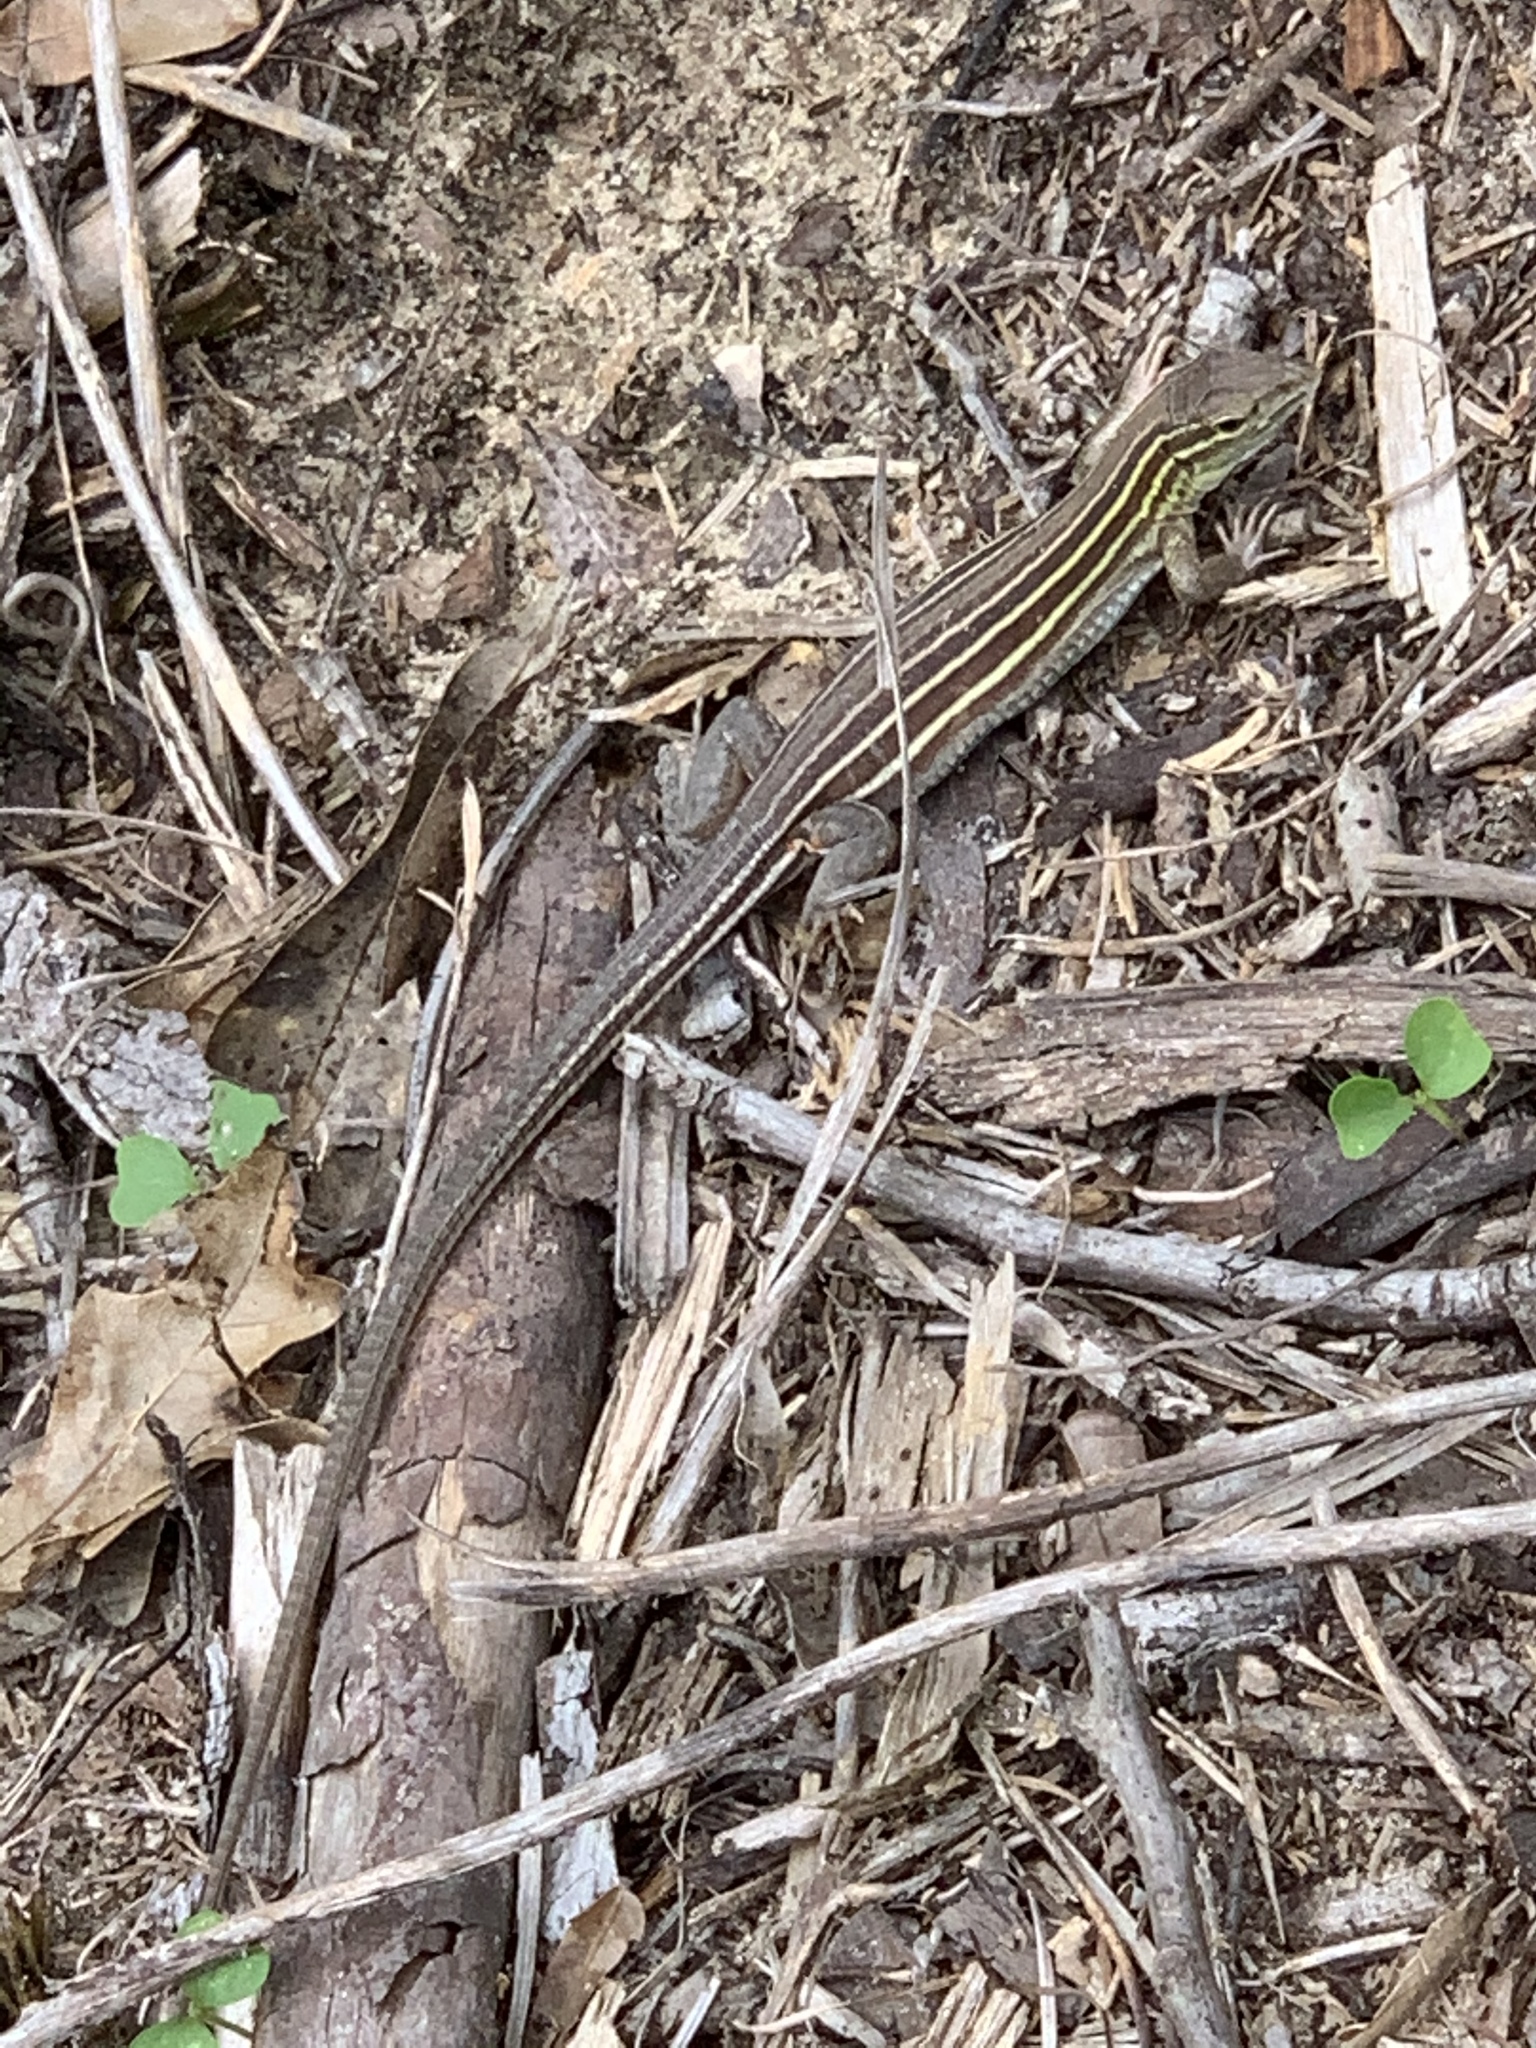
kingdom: Animalia
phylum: Chordata
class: Squamata
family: Teiidae
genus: Aspidoscelis
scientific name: Aspidoscelis sexlineatus
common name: Six-lined racerunner
